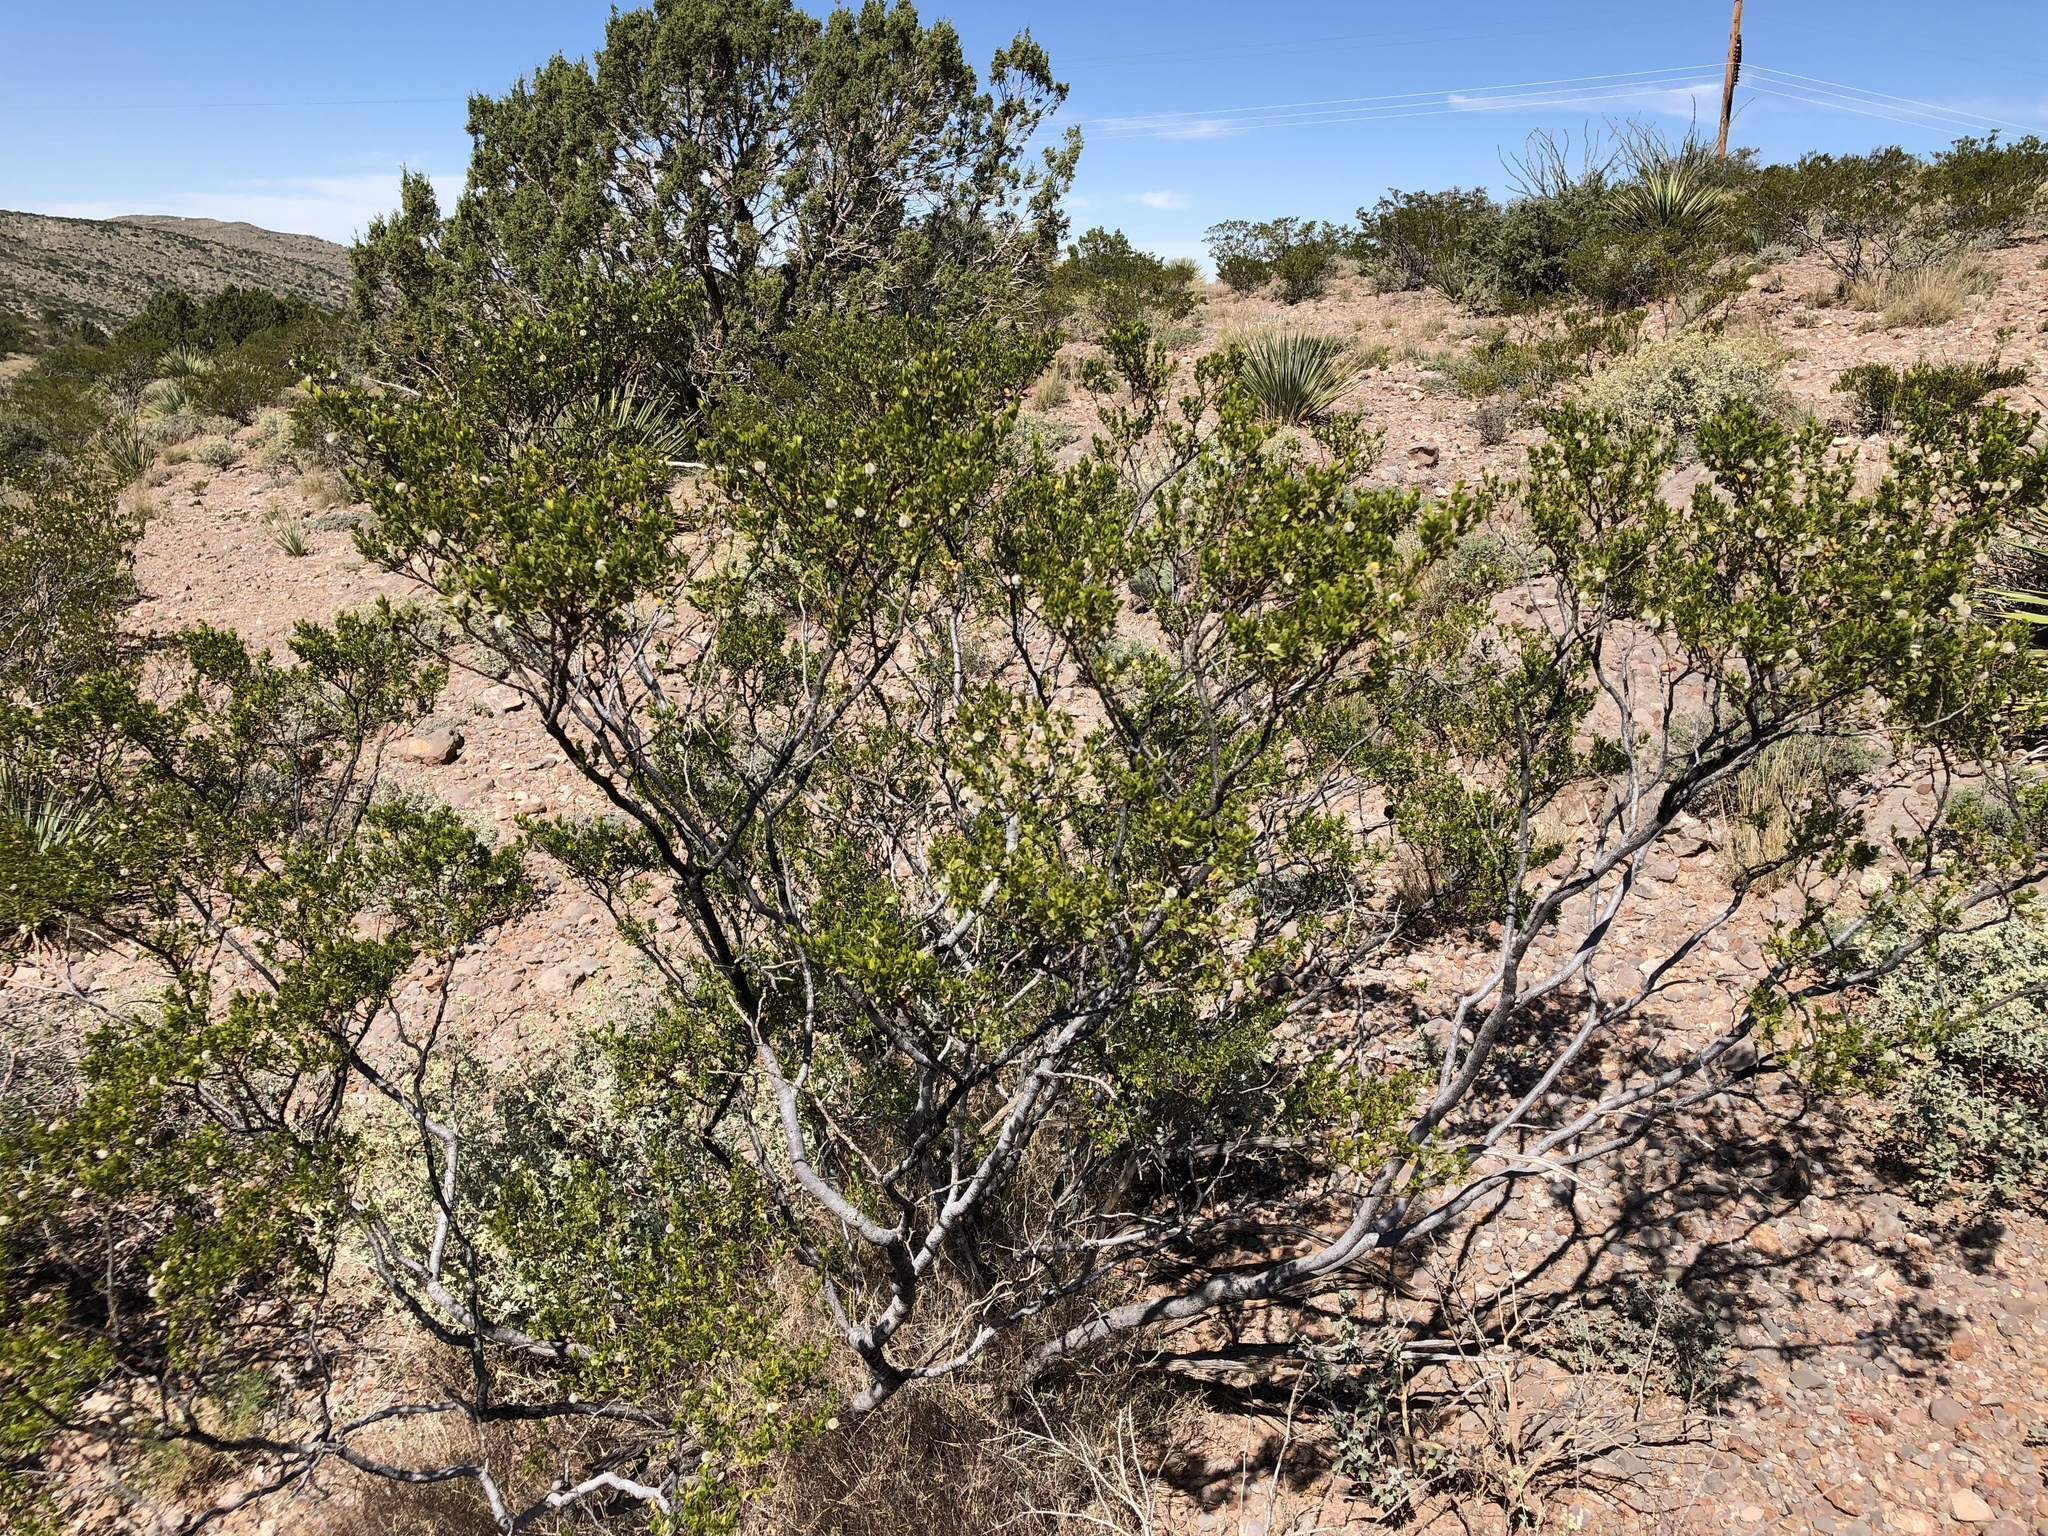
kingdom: Plantae
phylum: Tracheophyta
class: Magnoliopsida
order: Zygophyllales
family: Zygophyllaceae
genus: Larrea
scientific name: Larrea tridentata
